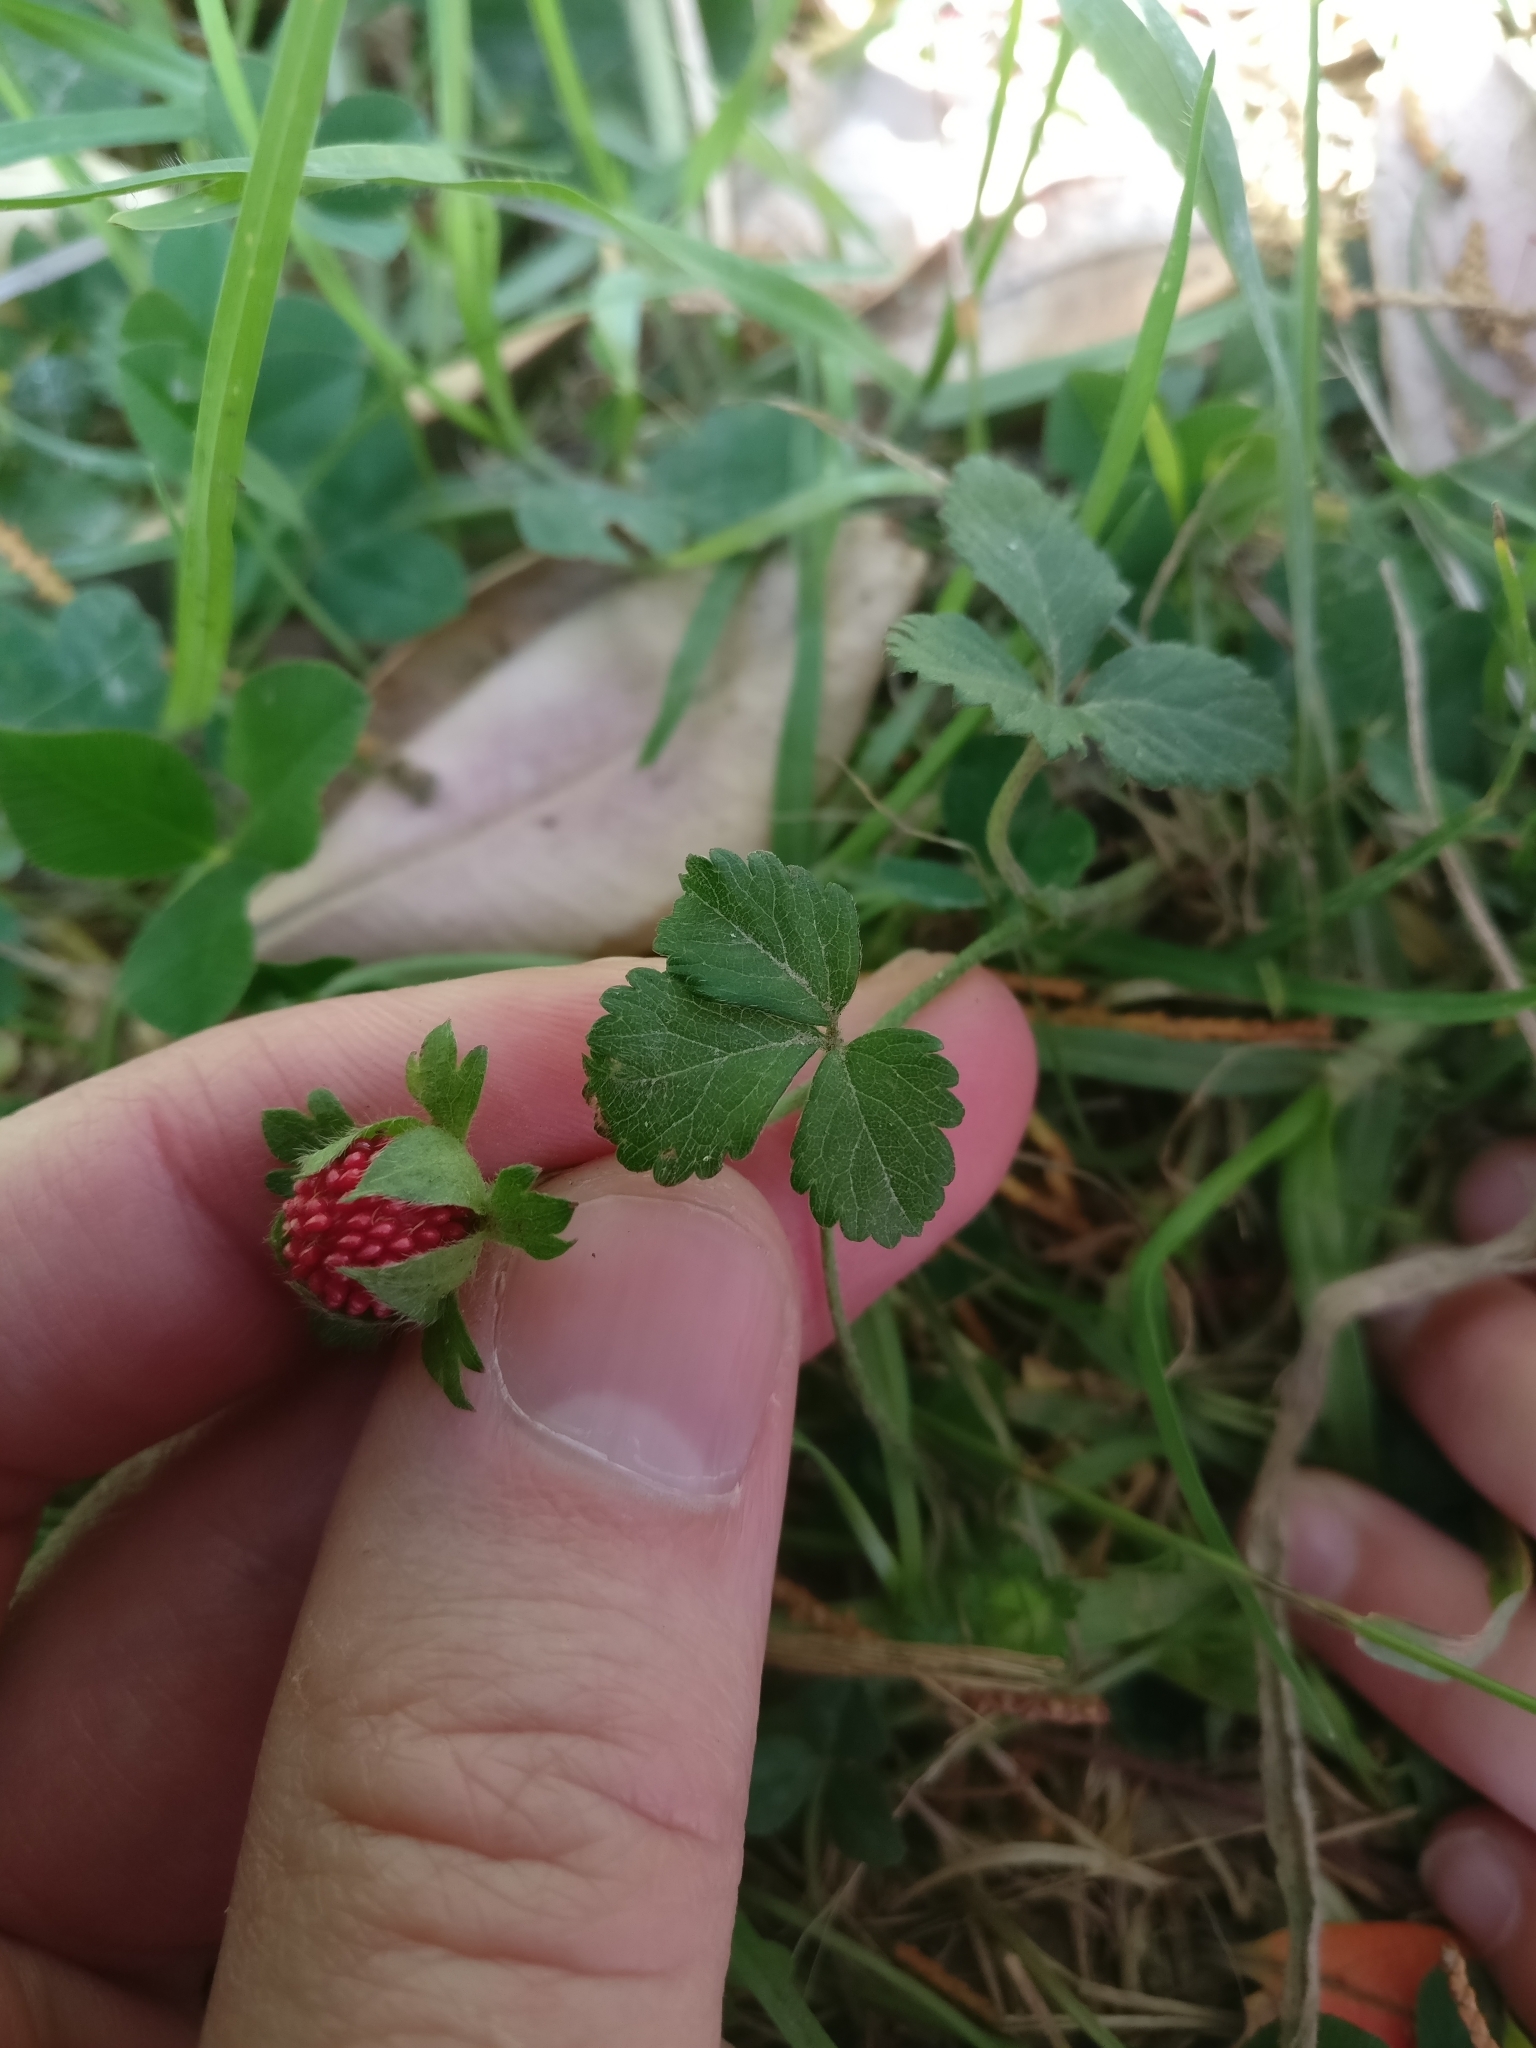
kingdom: Plantae
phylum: Tracheophyta
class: Magnoliopsida
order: Rosales
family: Rosaceae
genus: Potentilla
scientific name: Potentilla indica
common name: Yellow-flowered strawberry
